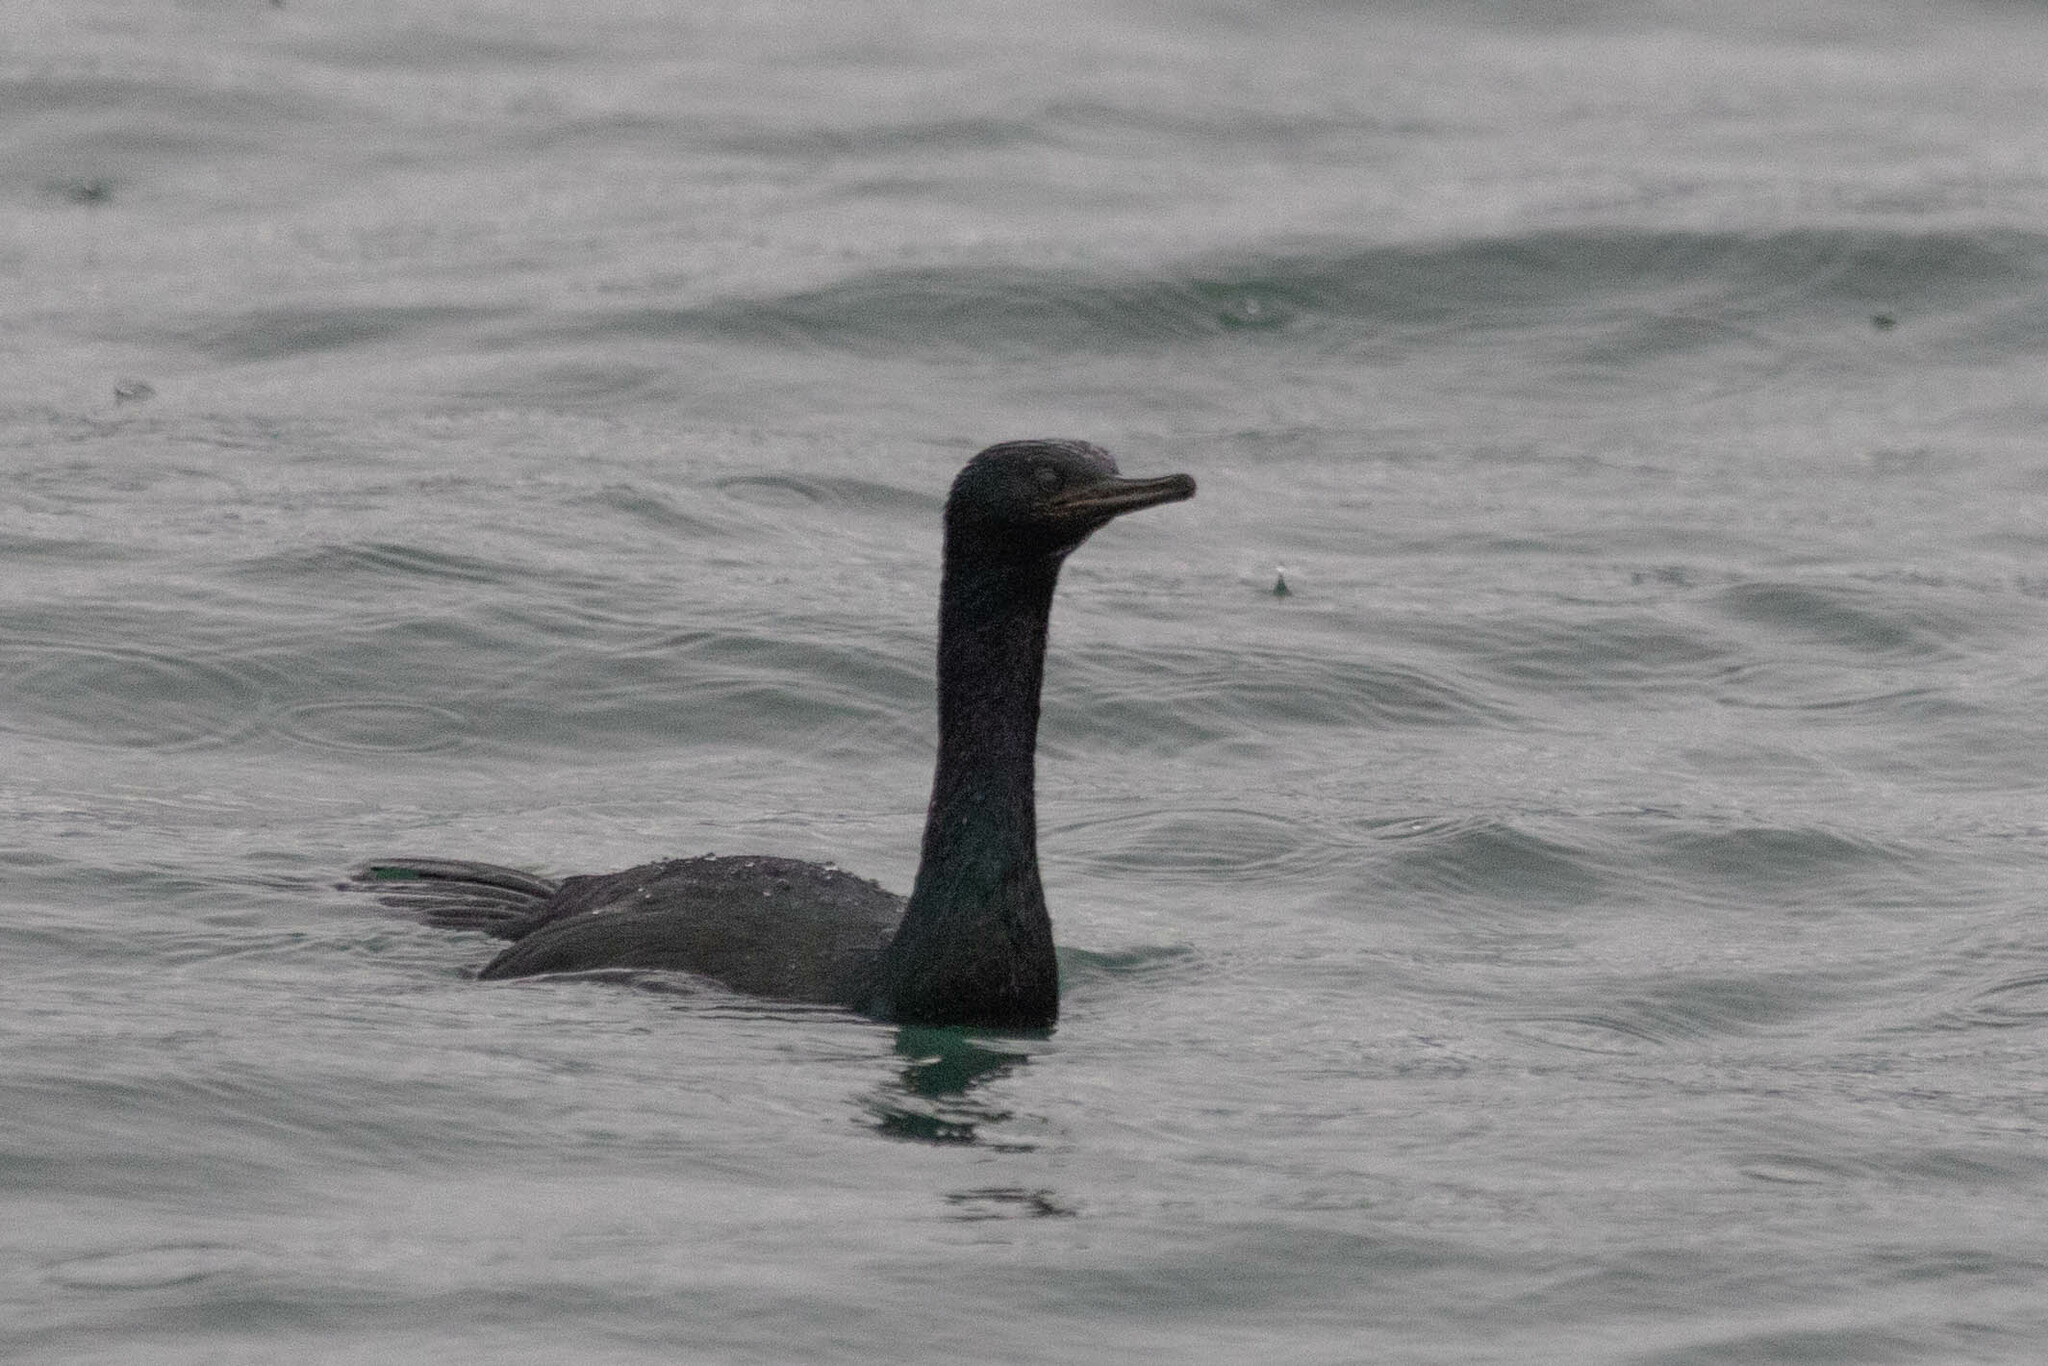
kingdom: Animalia
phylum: Chordata
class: Aves
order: Suliformes
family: Phalacrocoracidae
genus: Phalacrocorax
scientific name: Phalacrocorax pelagicus
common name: Pelagic cormorant
